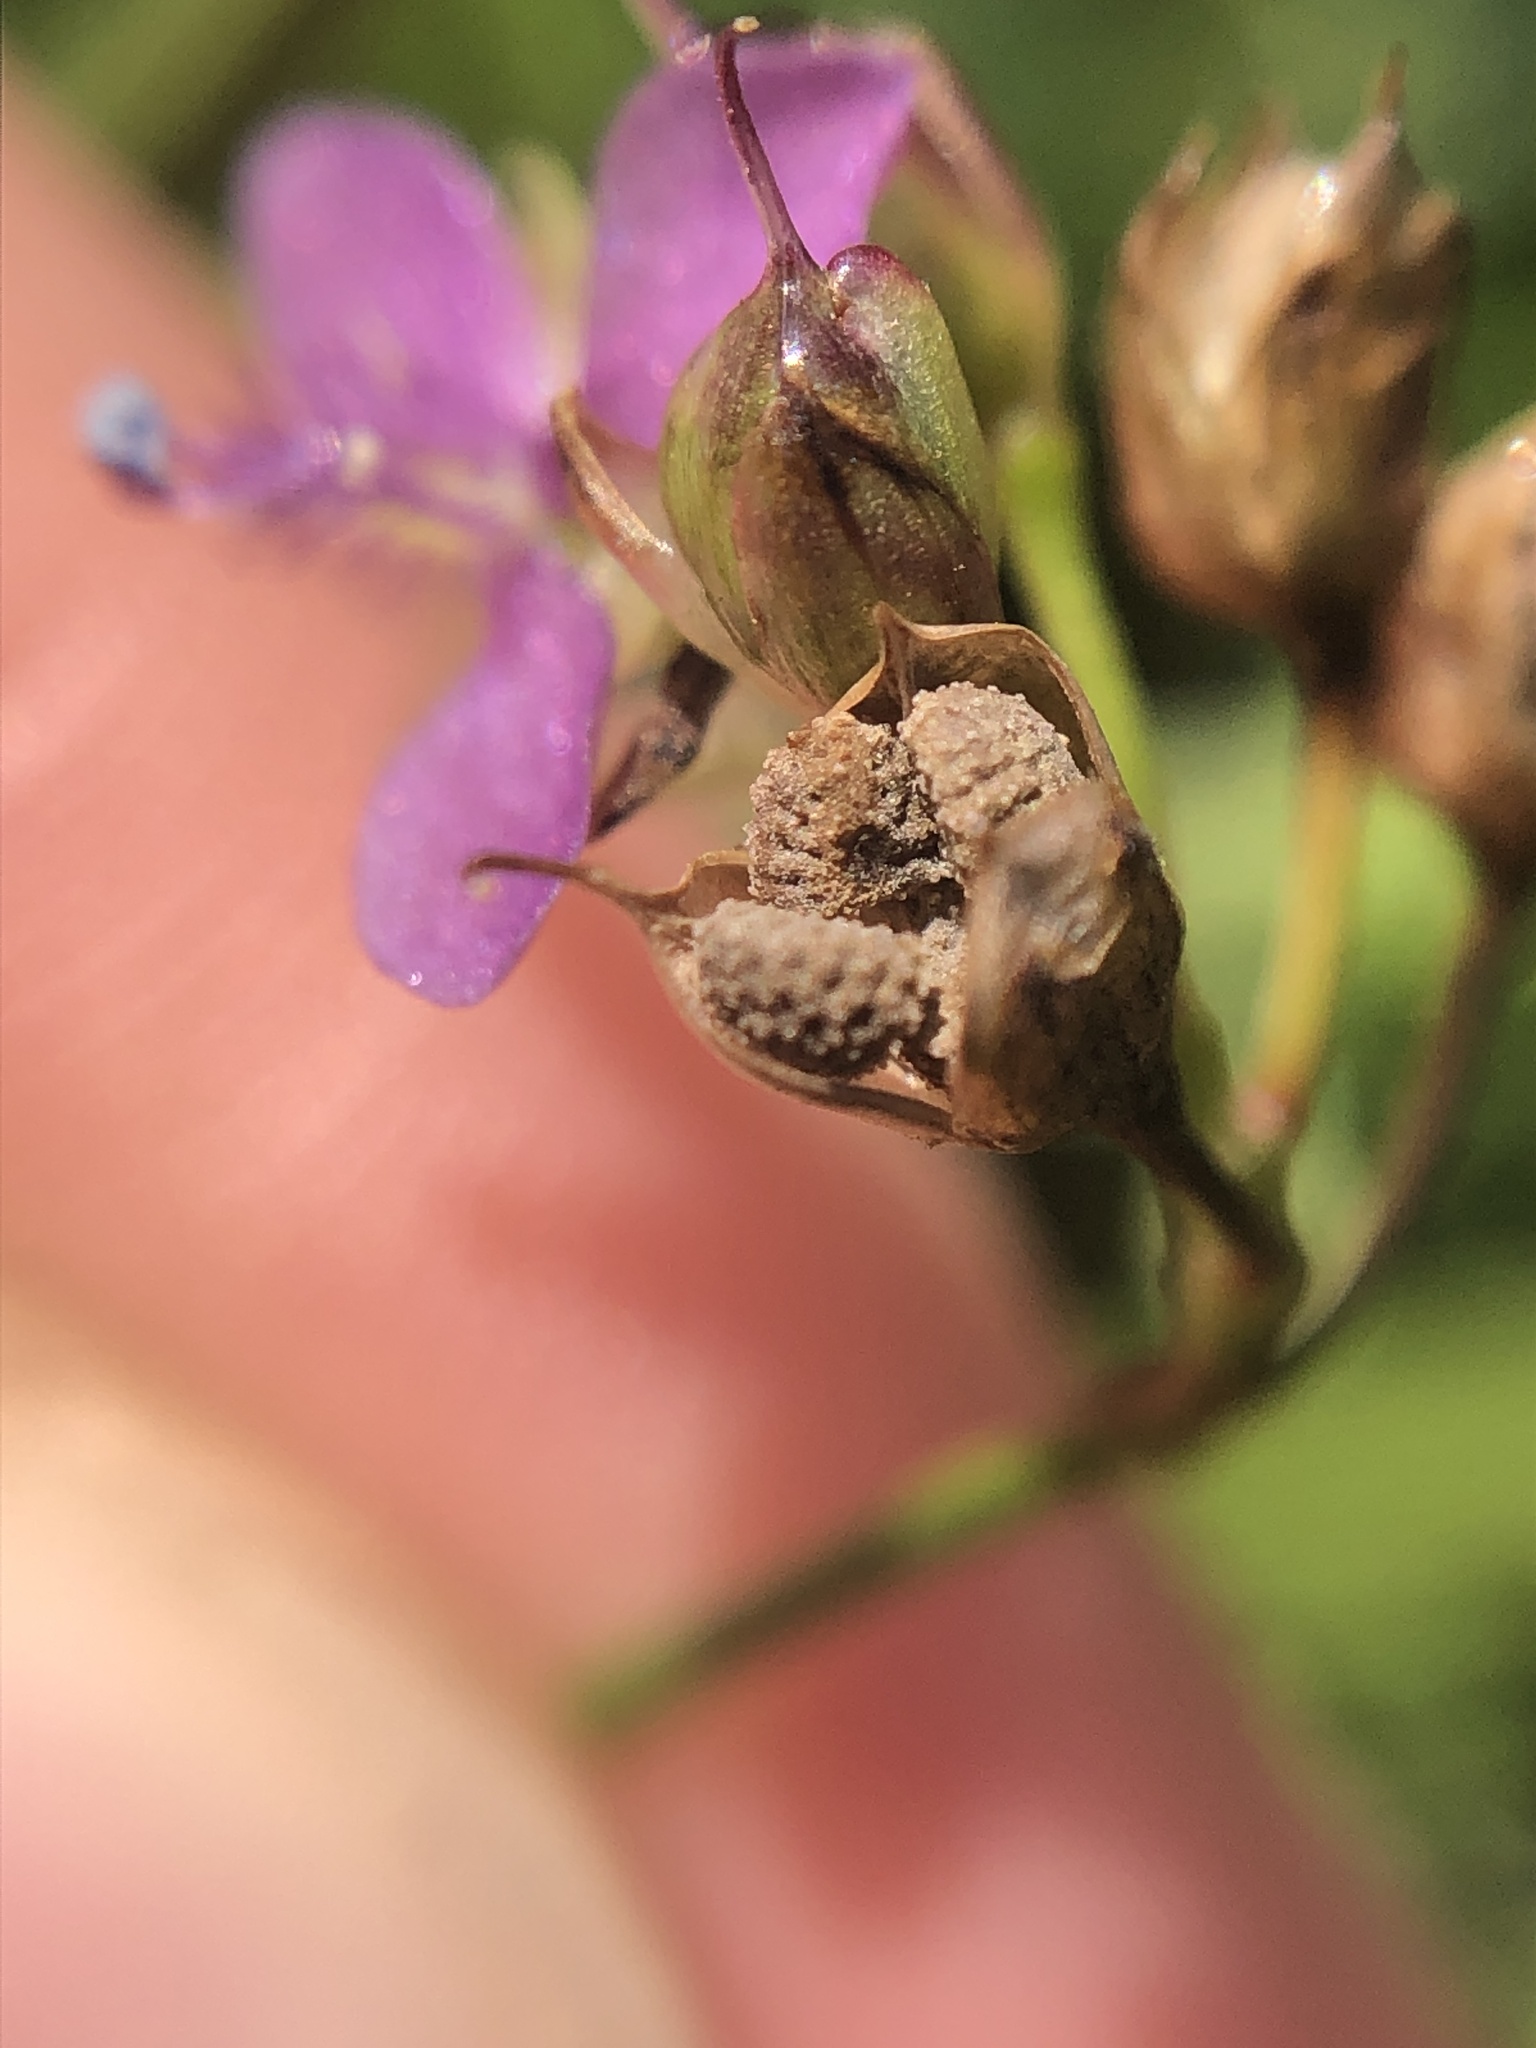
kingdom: Plantae
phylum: Tracheophyta
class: Liliopsida
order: Commelinales
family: Commelinaceae
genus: Murdannia
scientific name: Murdannia nudiflora
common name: Nakedstem dewflower
